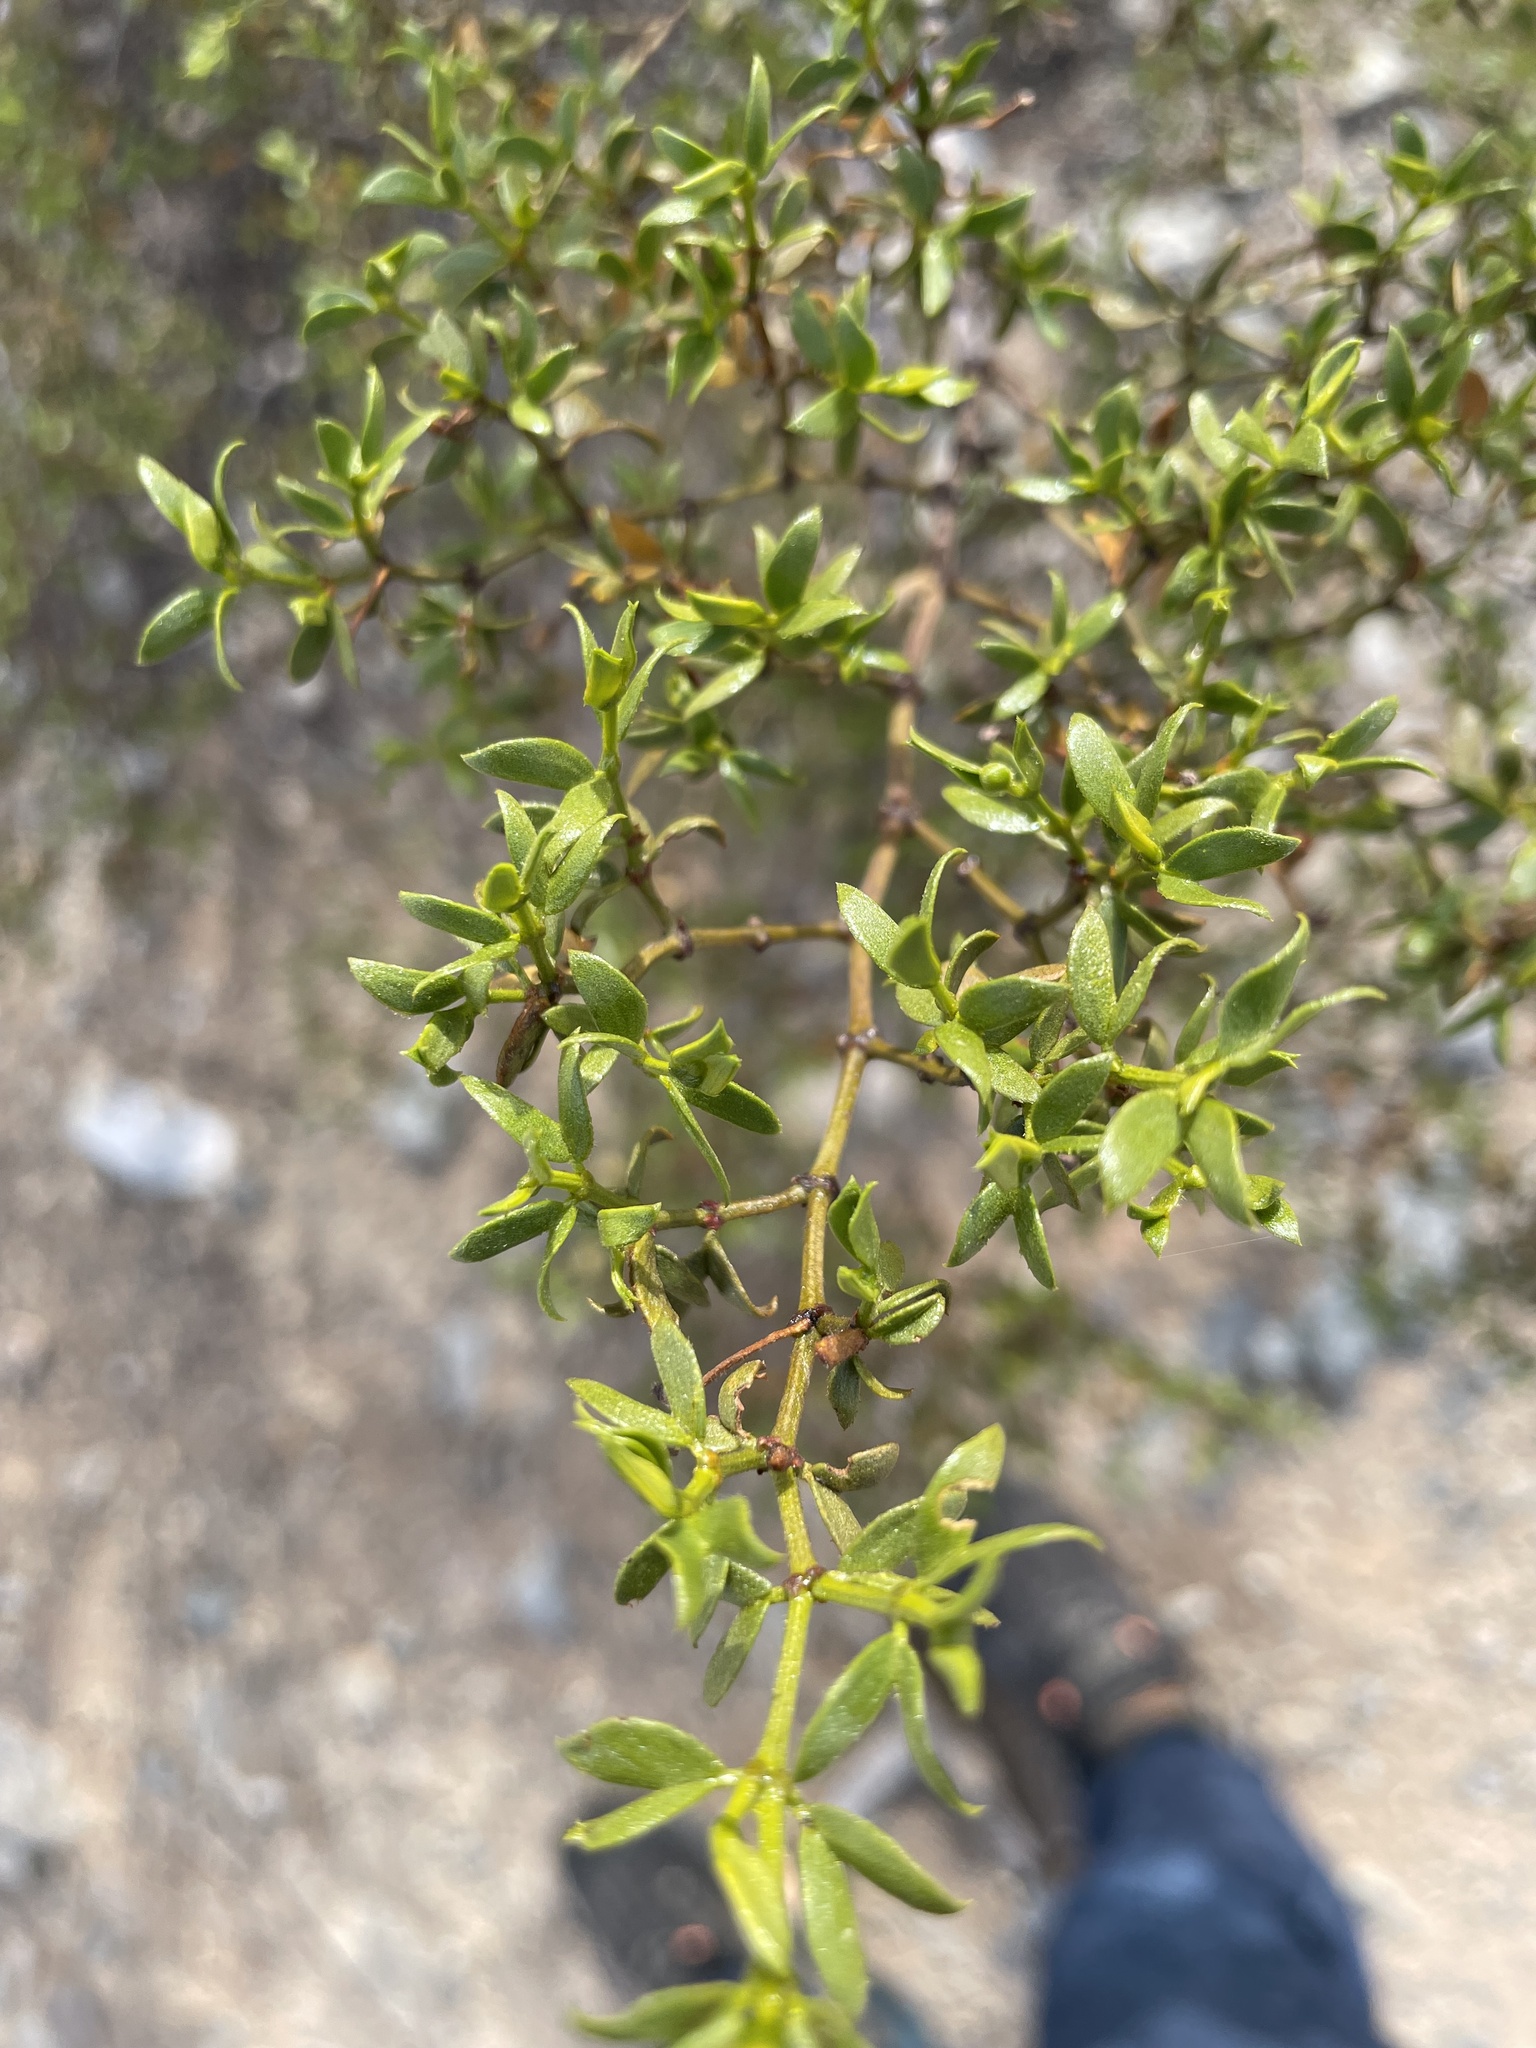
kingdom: Plantae
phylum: Tracheophyta
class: Magnoliopsida
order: Zygophyllales
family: Zygophyllaceae
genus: Larrea
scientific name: Larrea tridentata
